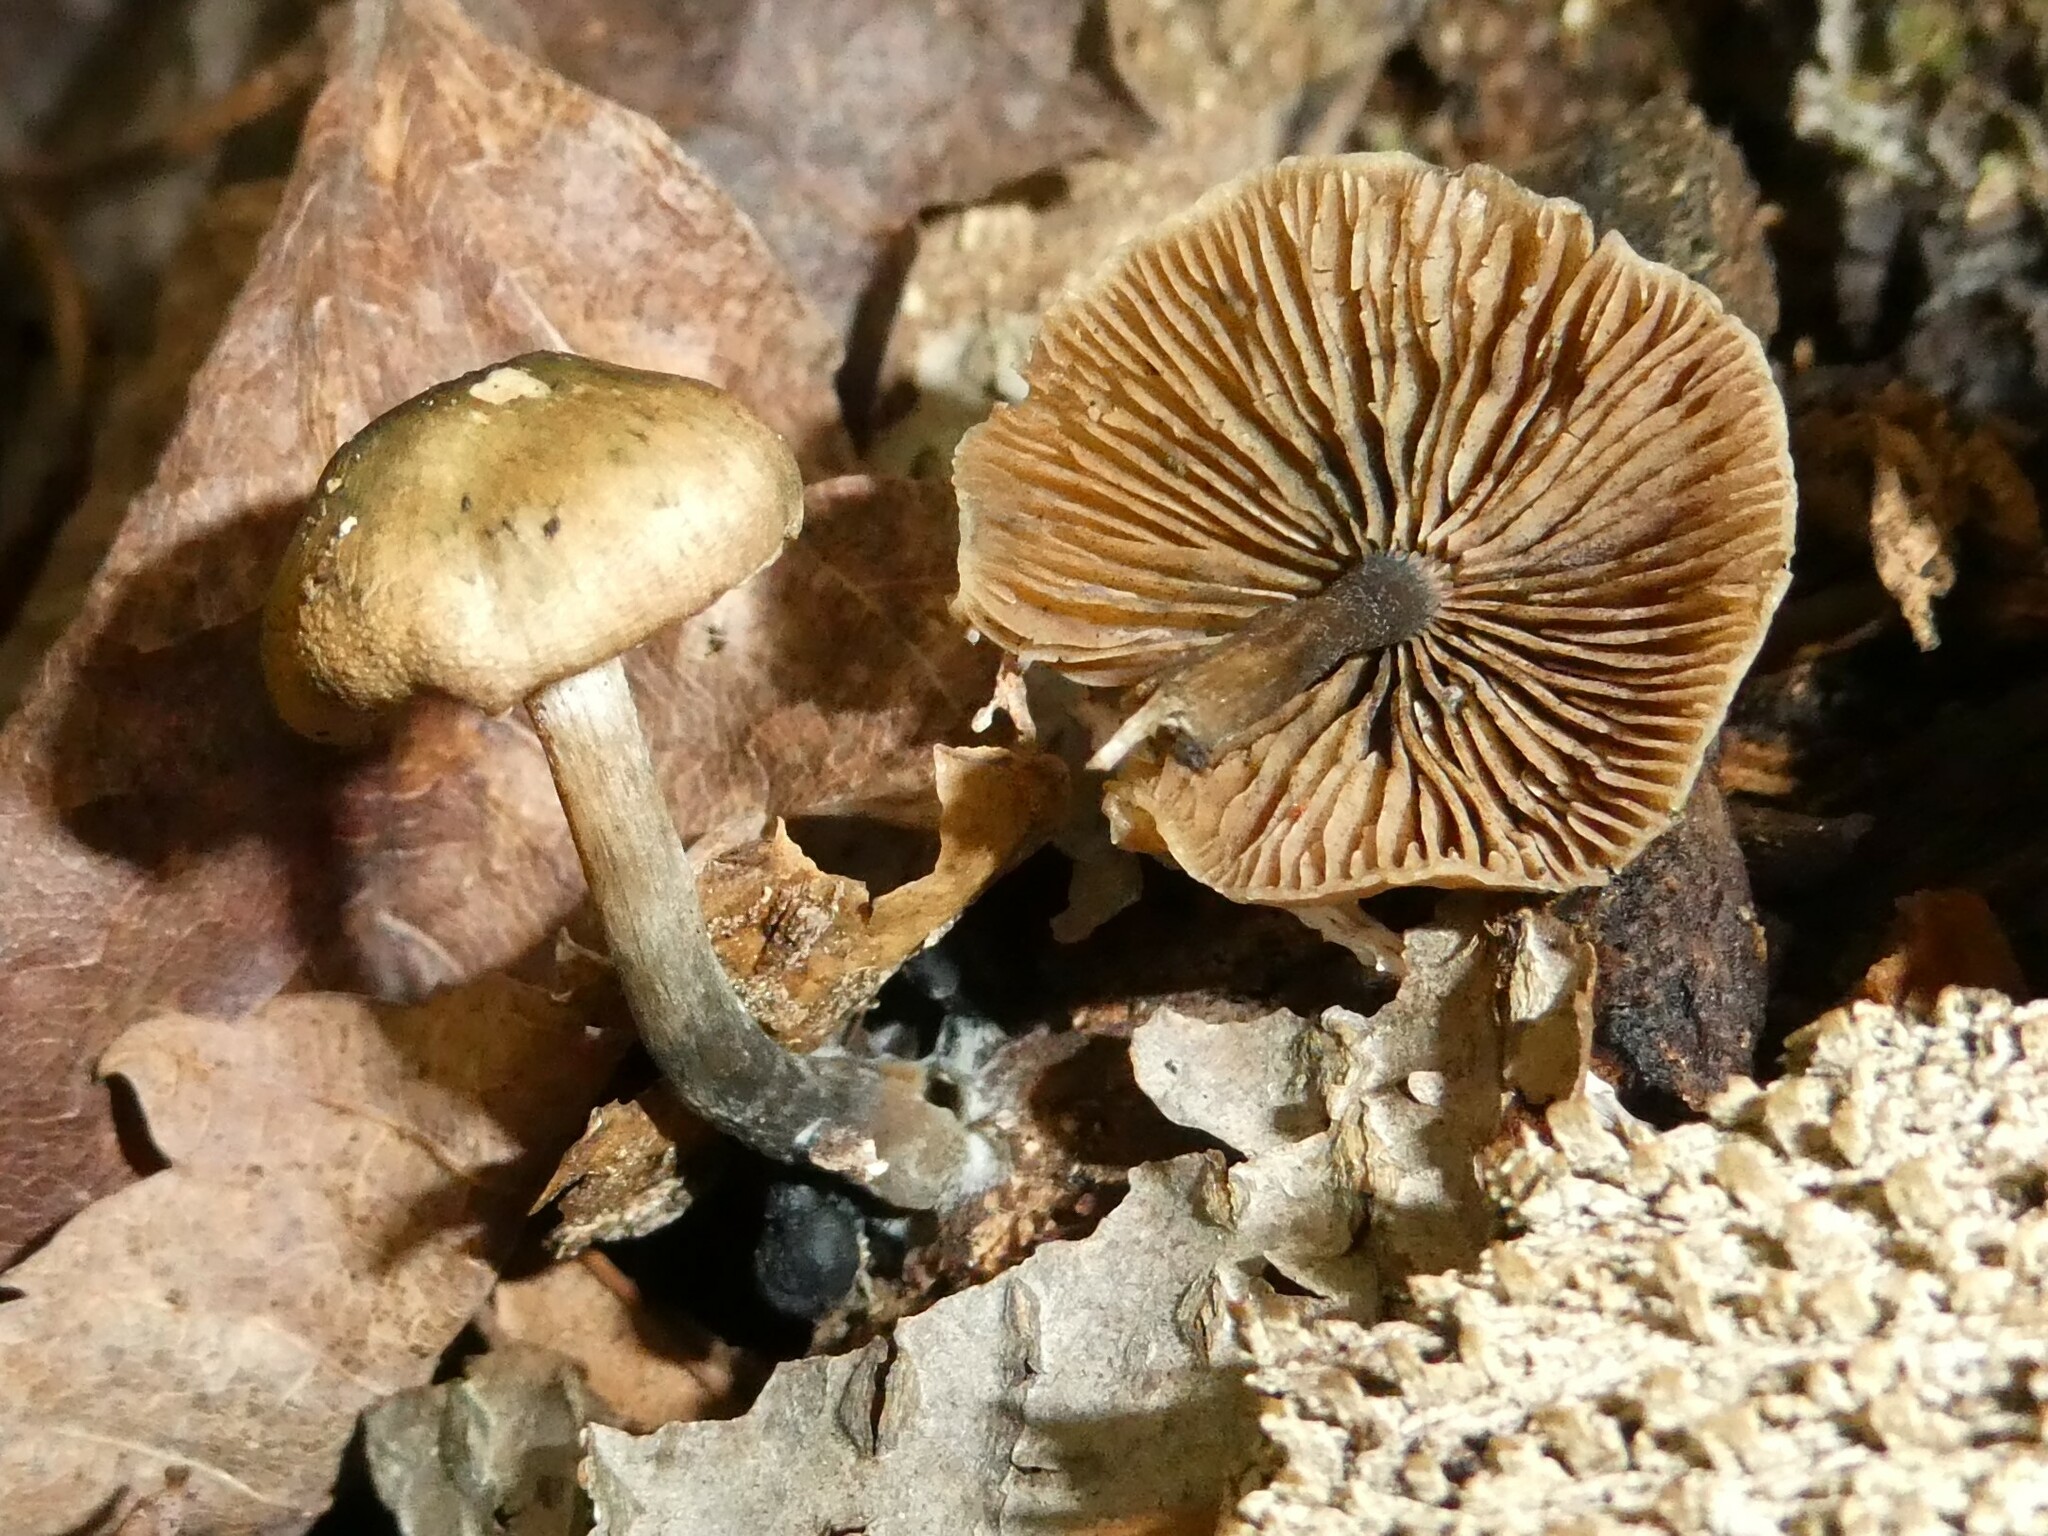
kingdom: Fungi
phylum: Basidiomycota
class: Agaricomycetes
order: Agaricales
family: Hymenogastraceae
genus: Psilocybe
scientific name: Psilocybe caerulipes
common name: Blue-foot
